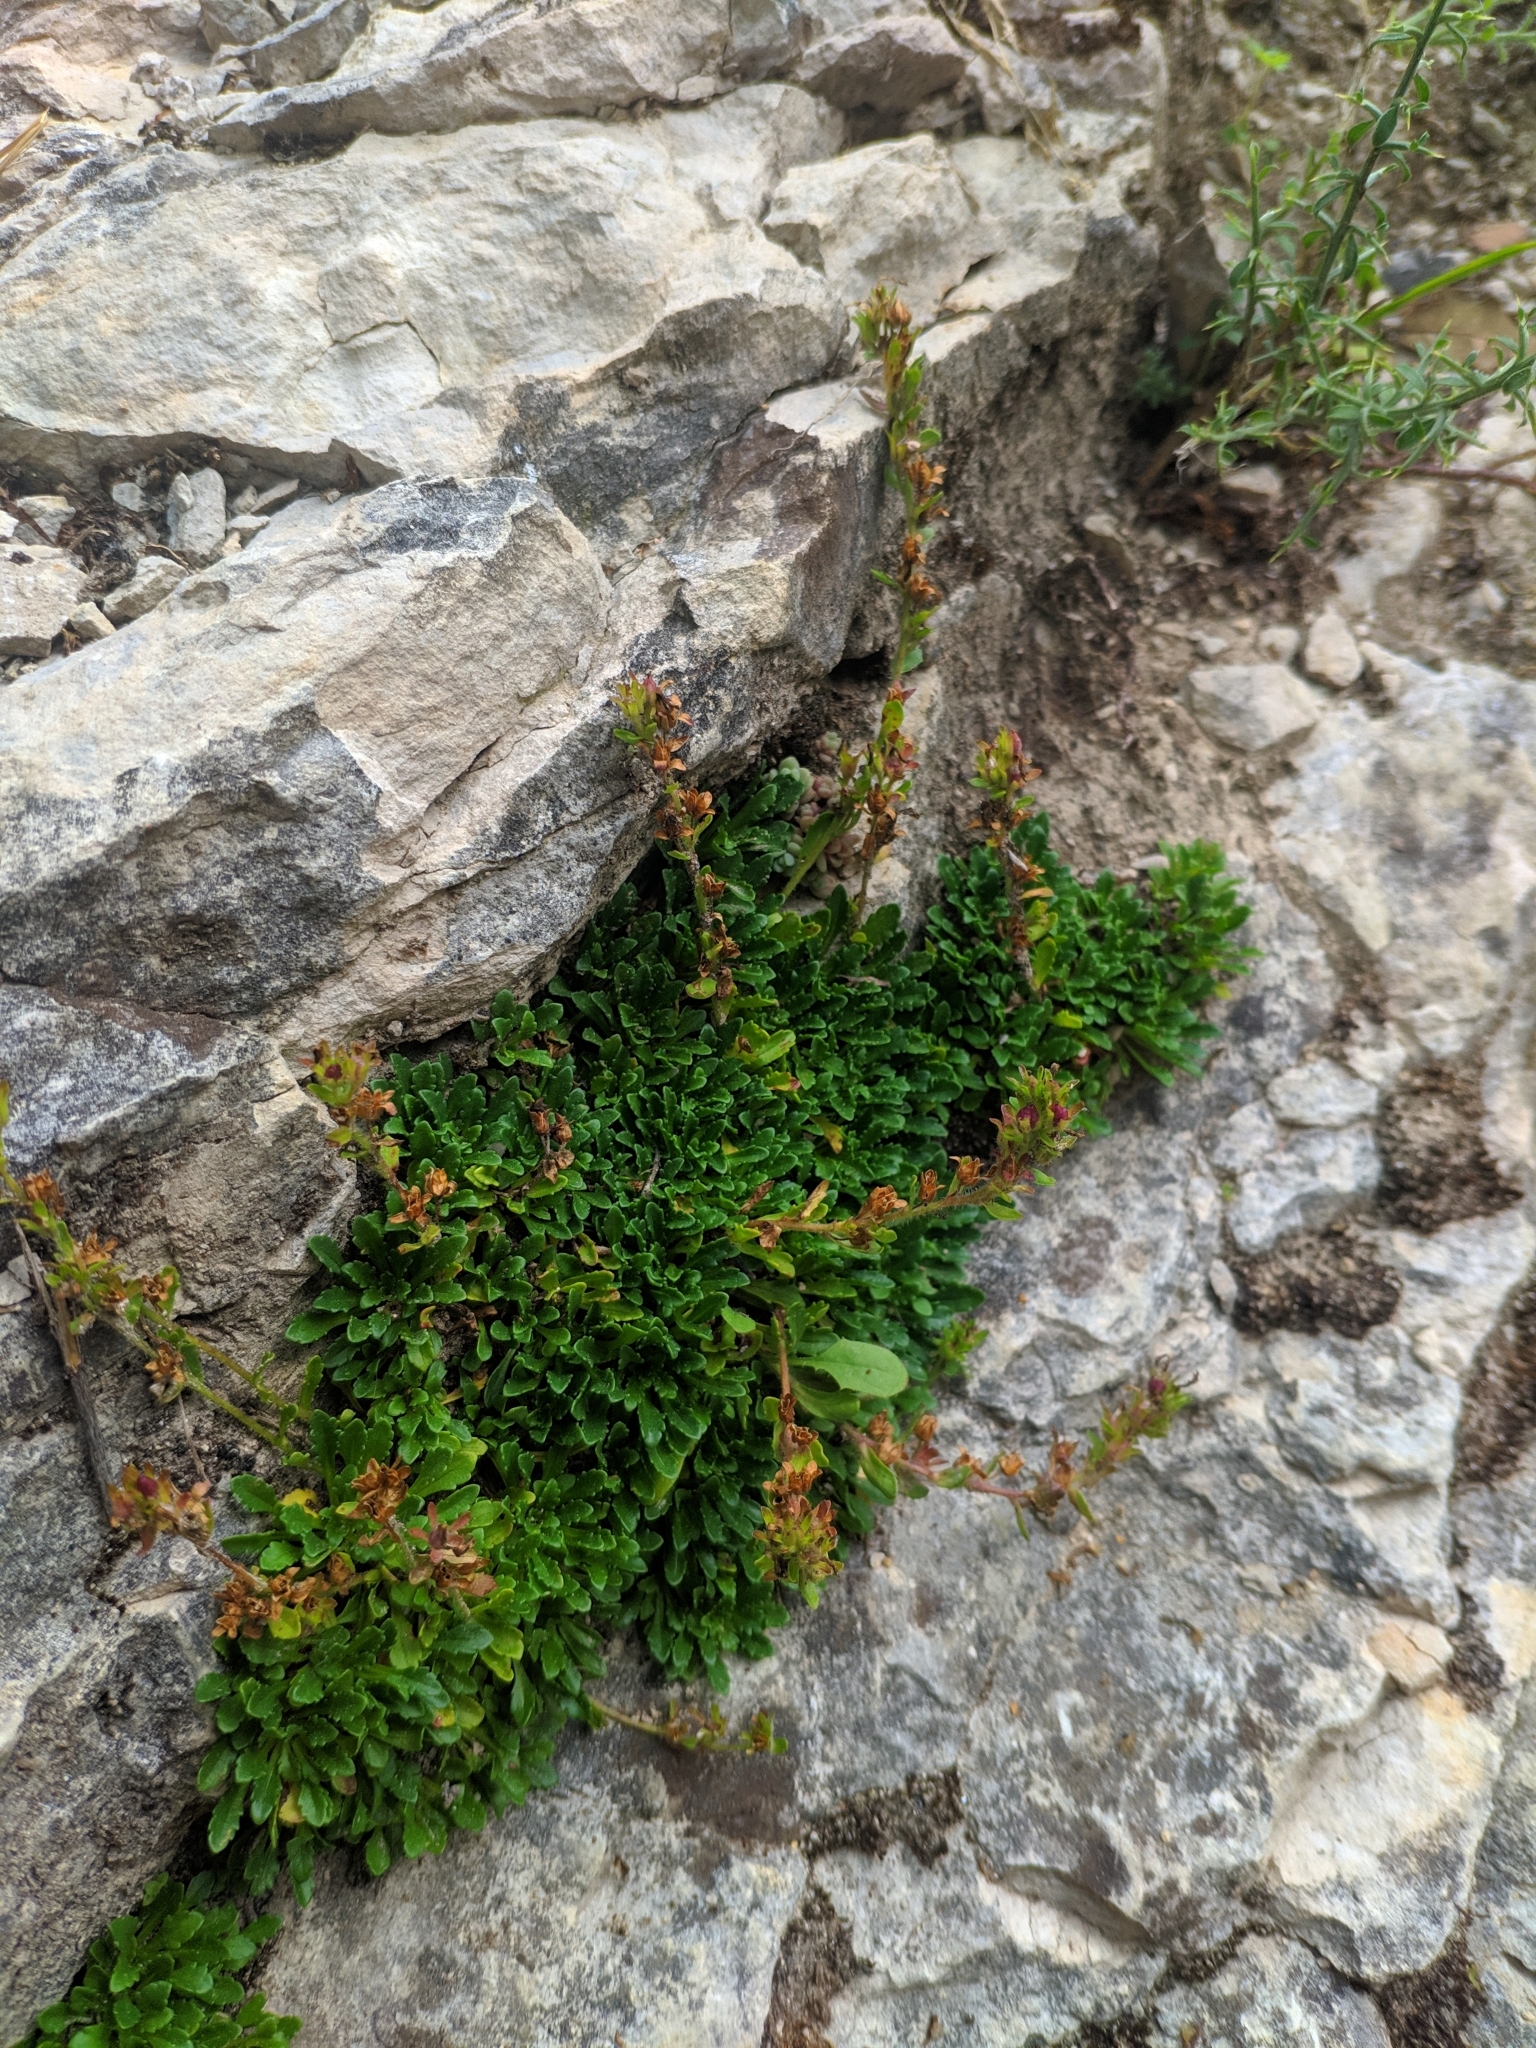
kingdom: Plantae
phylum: Tracheophyta
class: Magnoliopsida
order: Lamiales
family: Plantaginaceae
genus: Erinus
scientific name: Erinus alpinus
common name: Fairy foxglove
